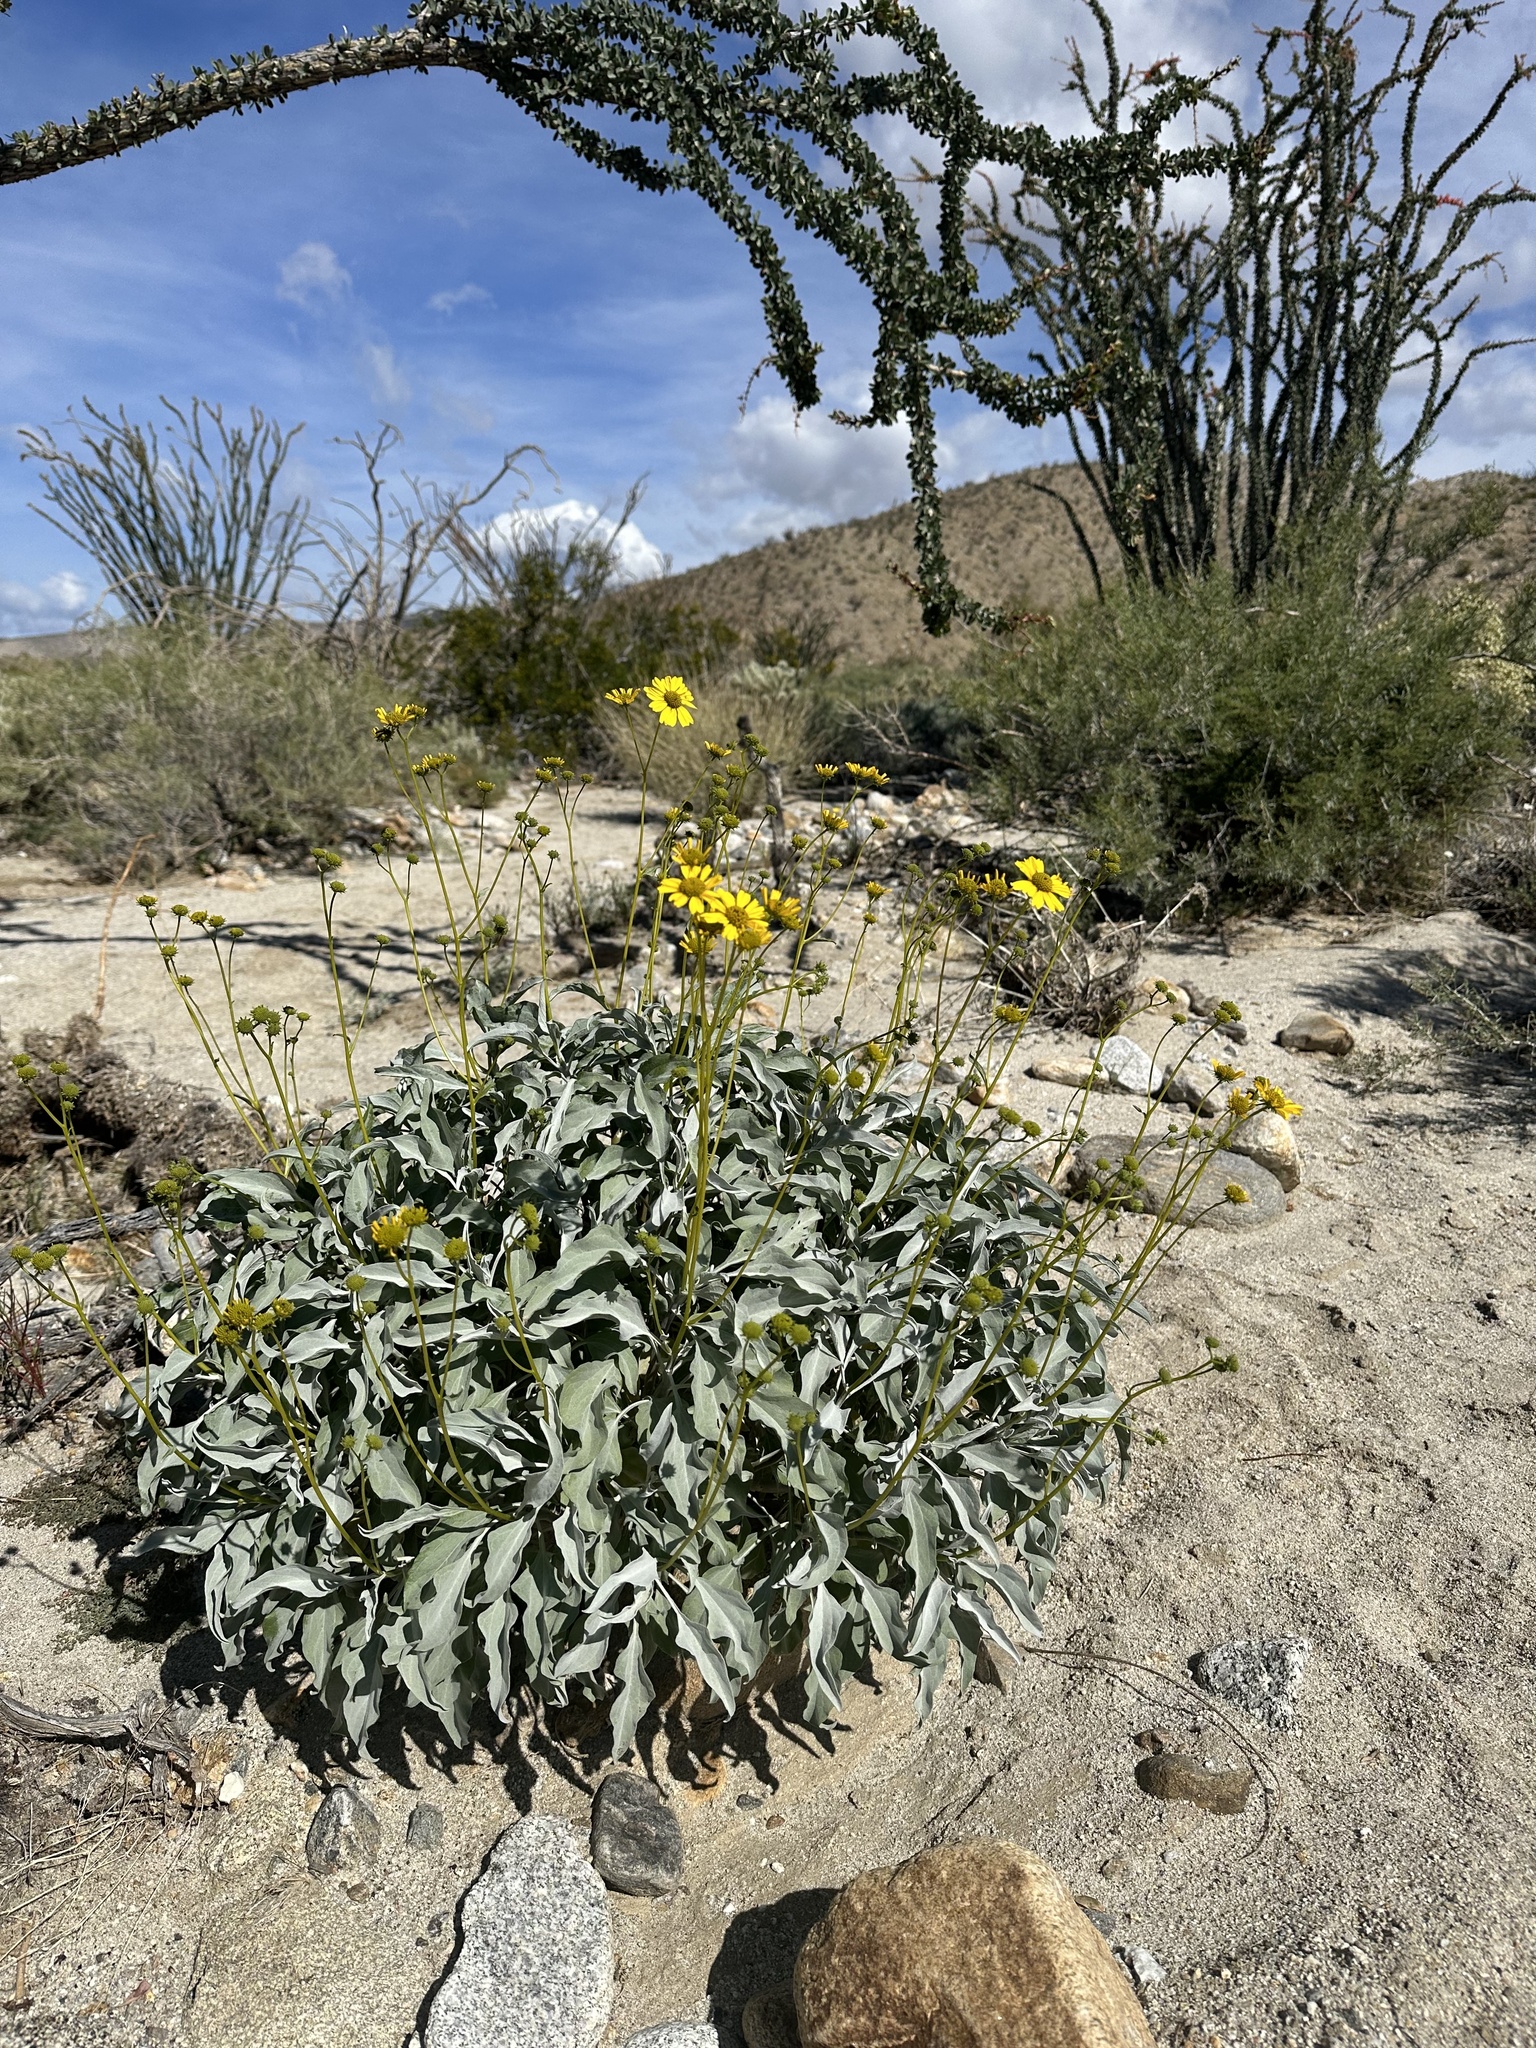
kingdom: Plantae
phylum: Tracheophyta
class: Magnoliopsida
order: Asterales
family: Asteraceae
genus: Encelia
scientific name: Encelia farinosa
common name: Brittlebush
